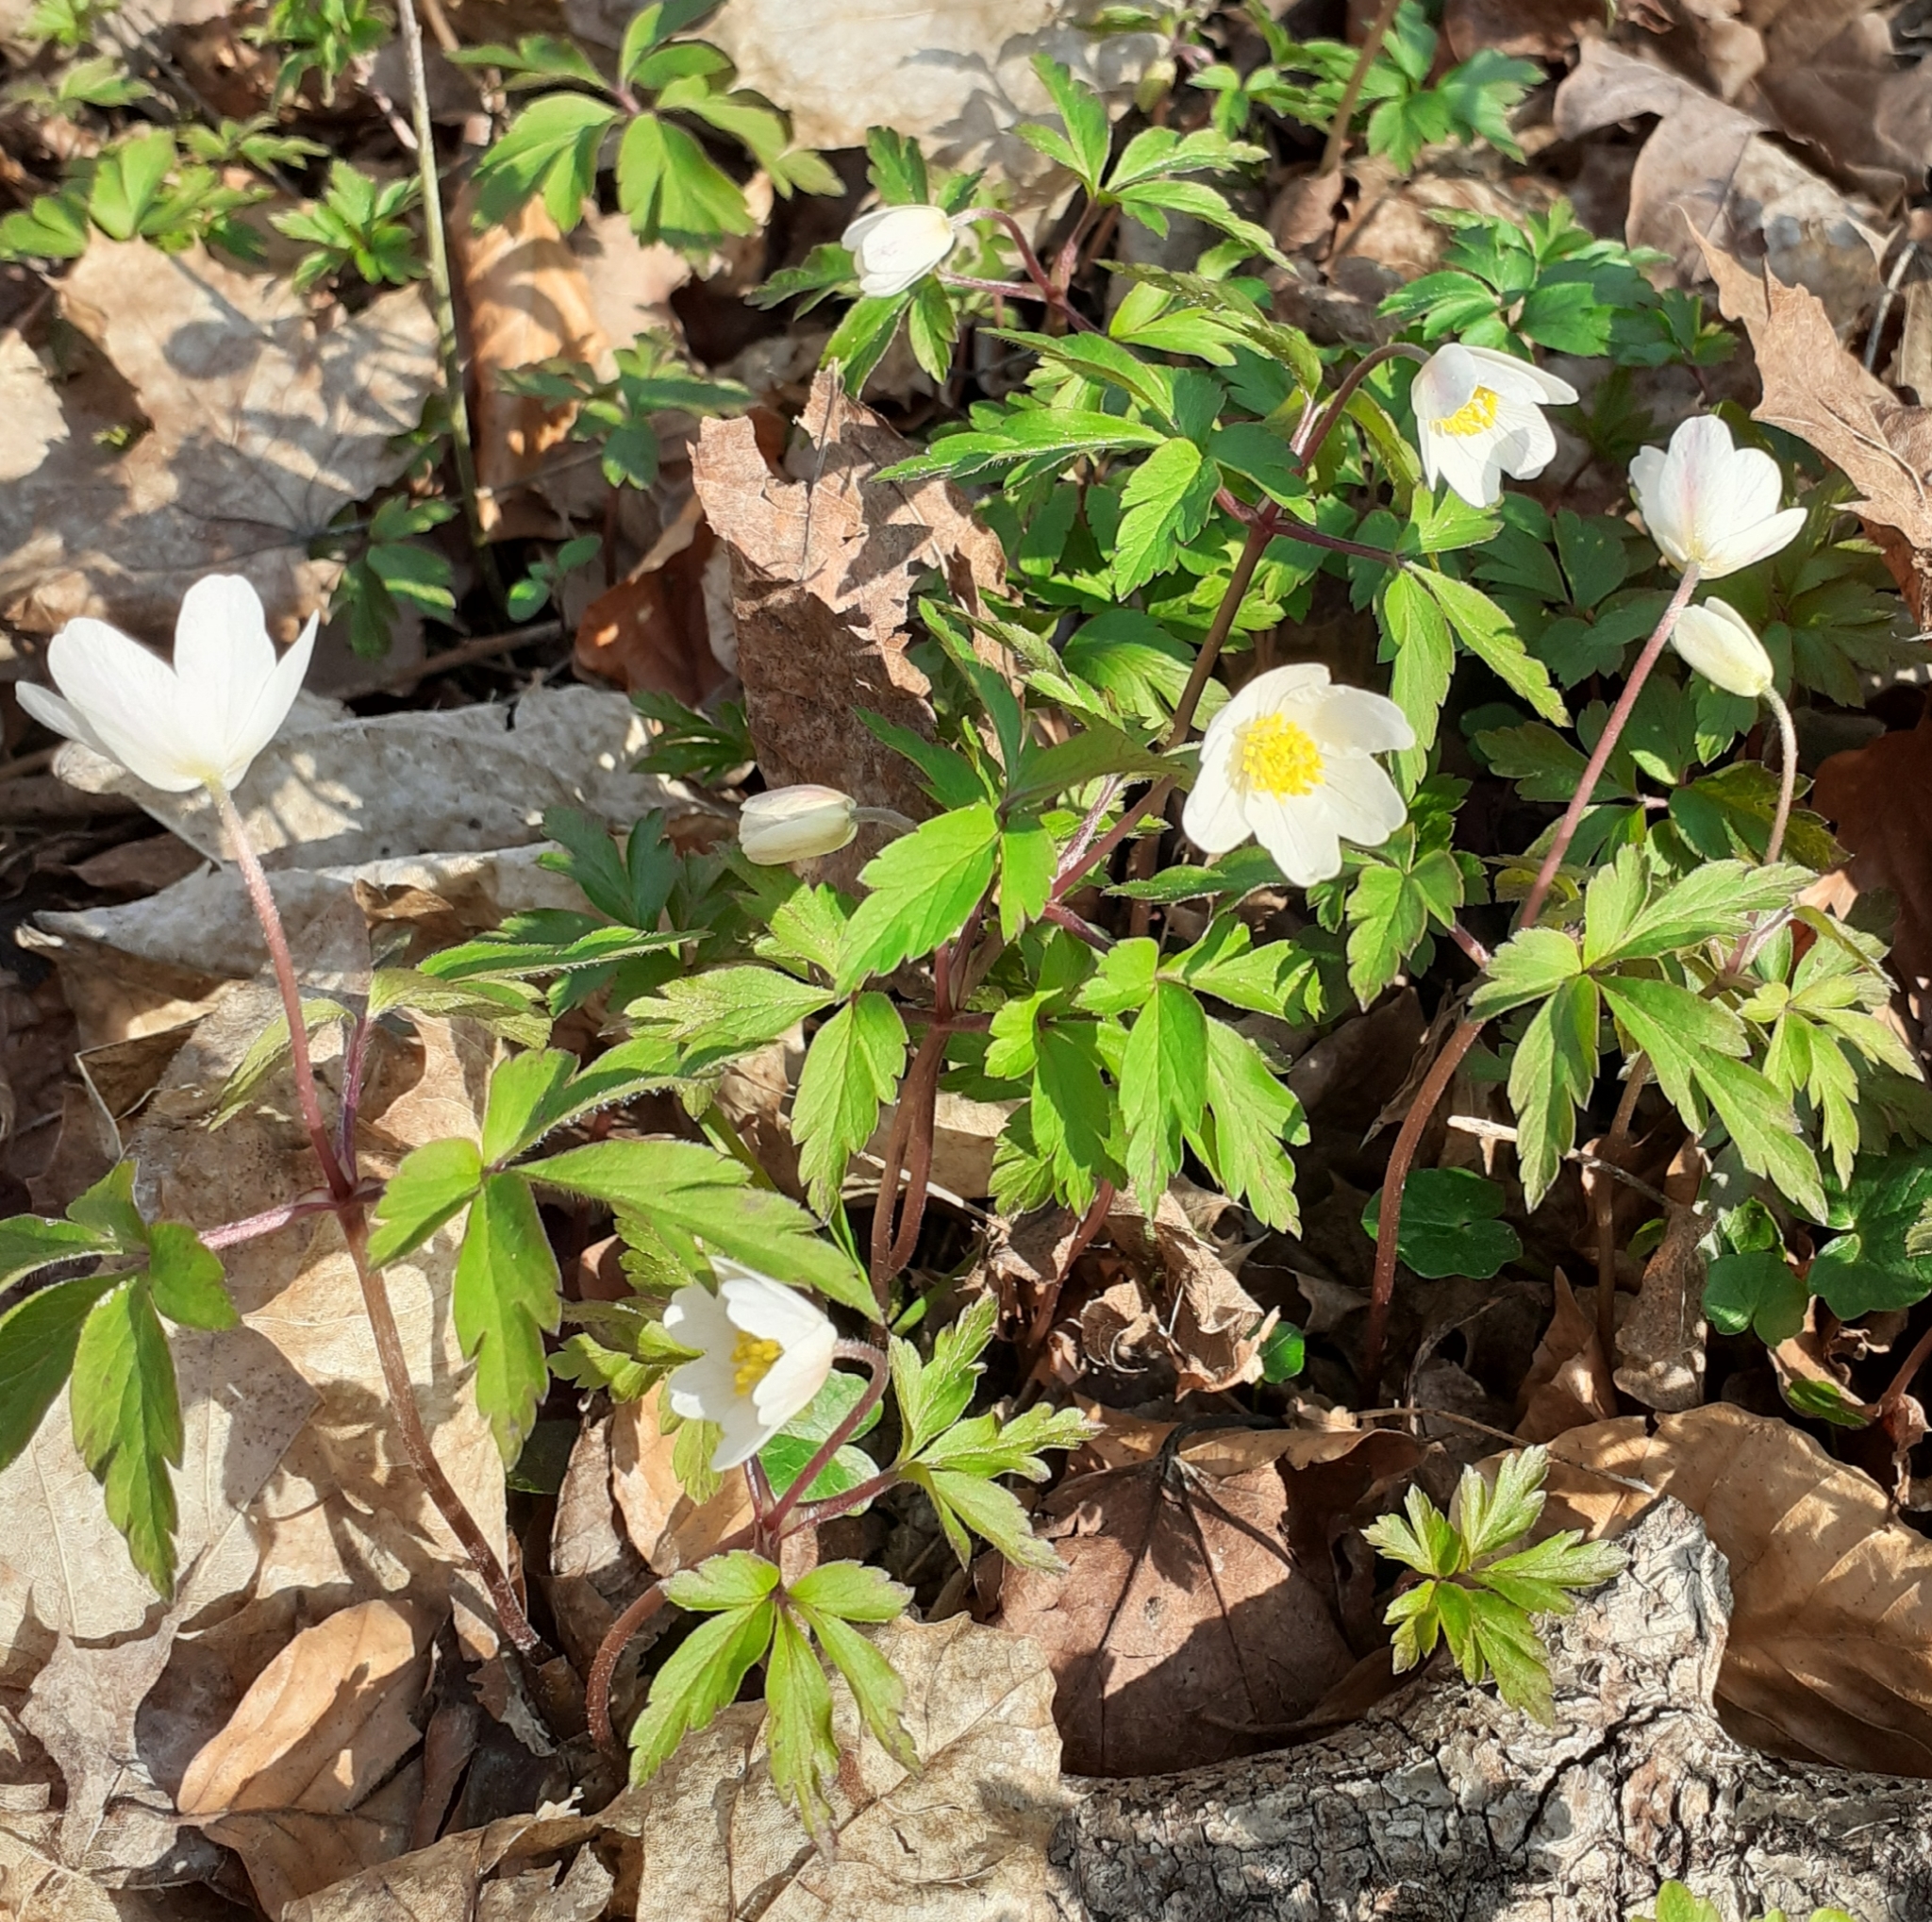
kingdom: Plantae
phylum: Tracheophyta
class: Magnoliopsida
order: Ranunculales
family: Ranunculaceae
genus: Anemone
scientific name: Anemone nemorosa
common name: Wood anemone
